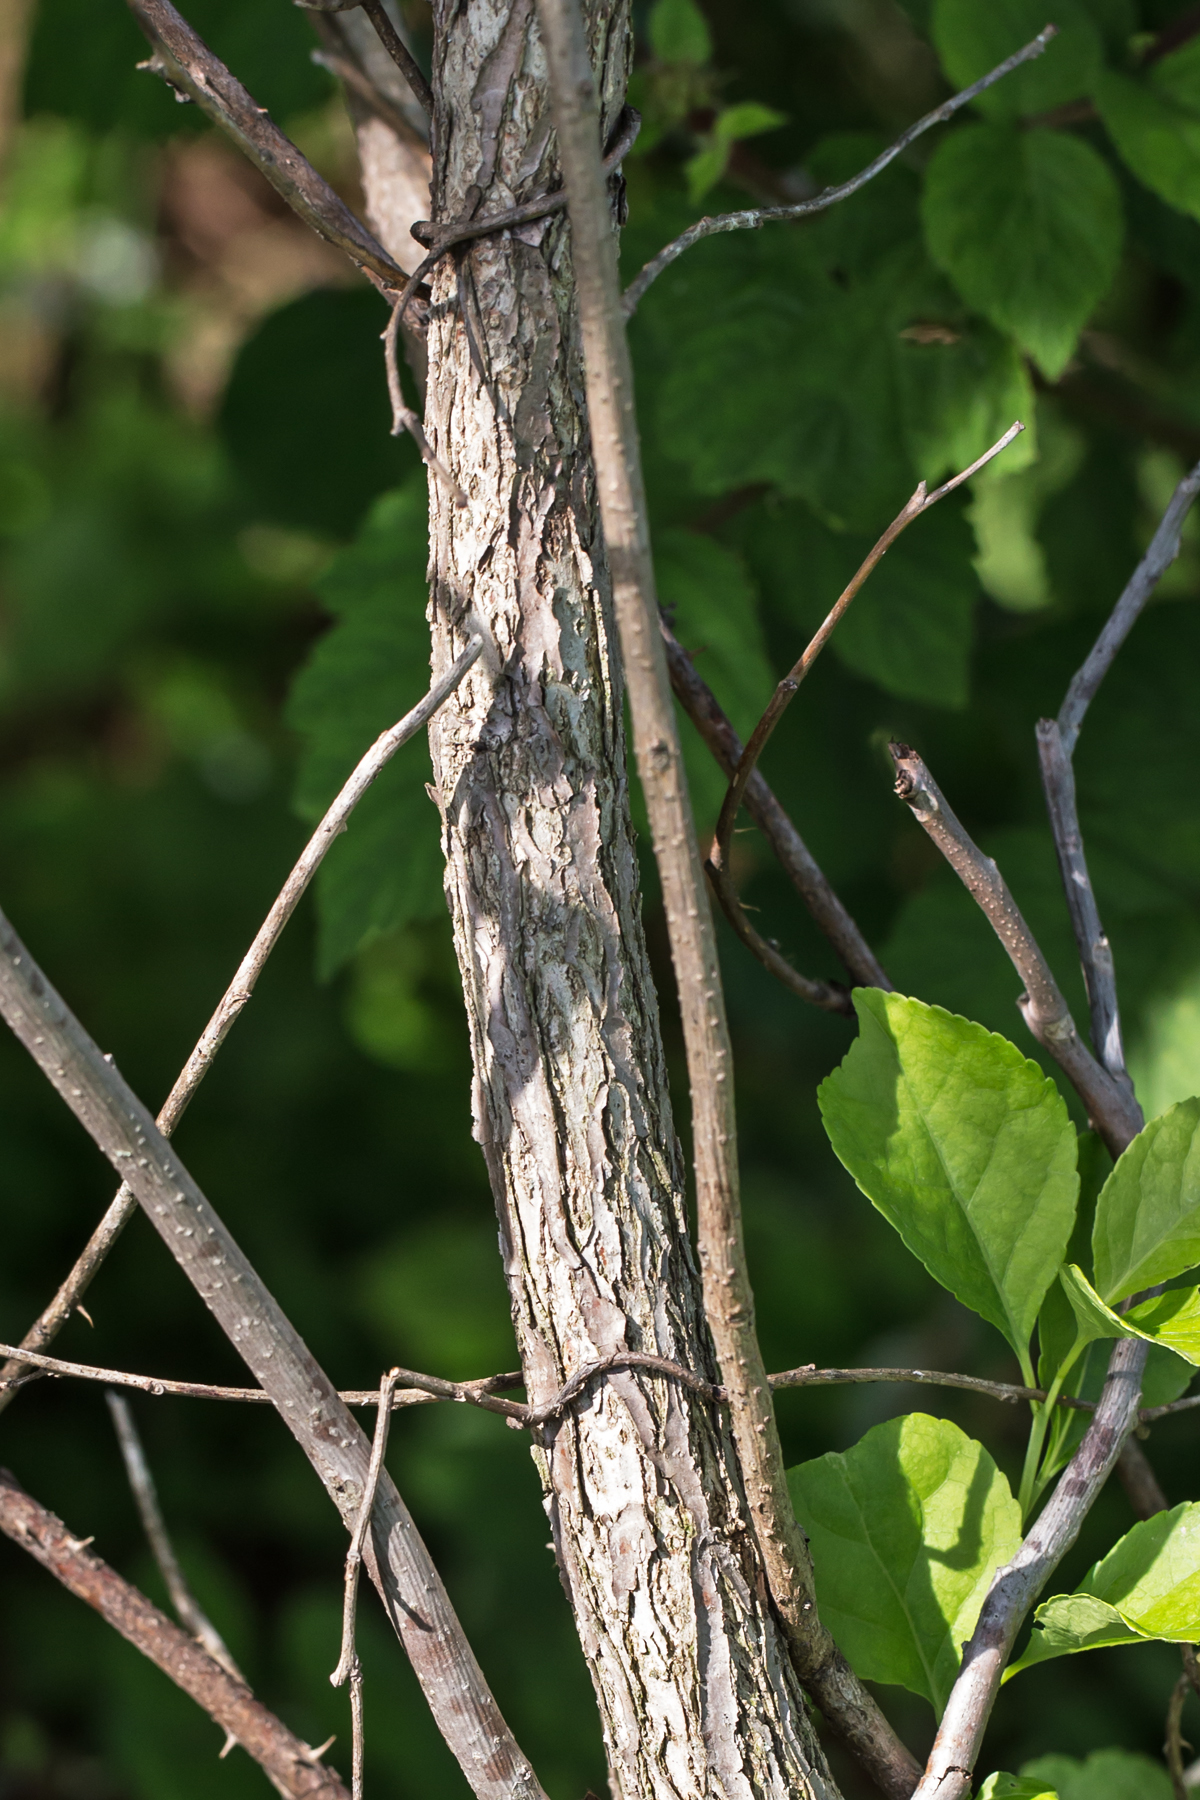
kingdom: Plantae
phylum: Tracheophyta
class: Magnoliopsida
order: Fagales
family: Juglandaceae
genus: Juglans
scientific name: Juglans nigra
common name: Black walnut
